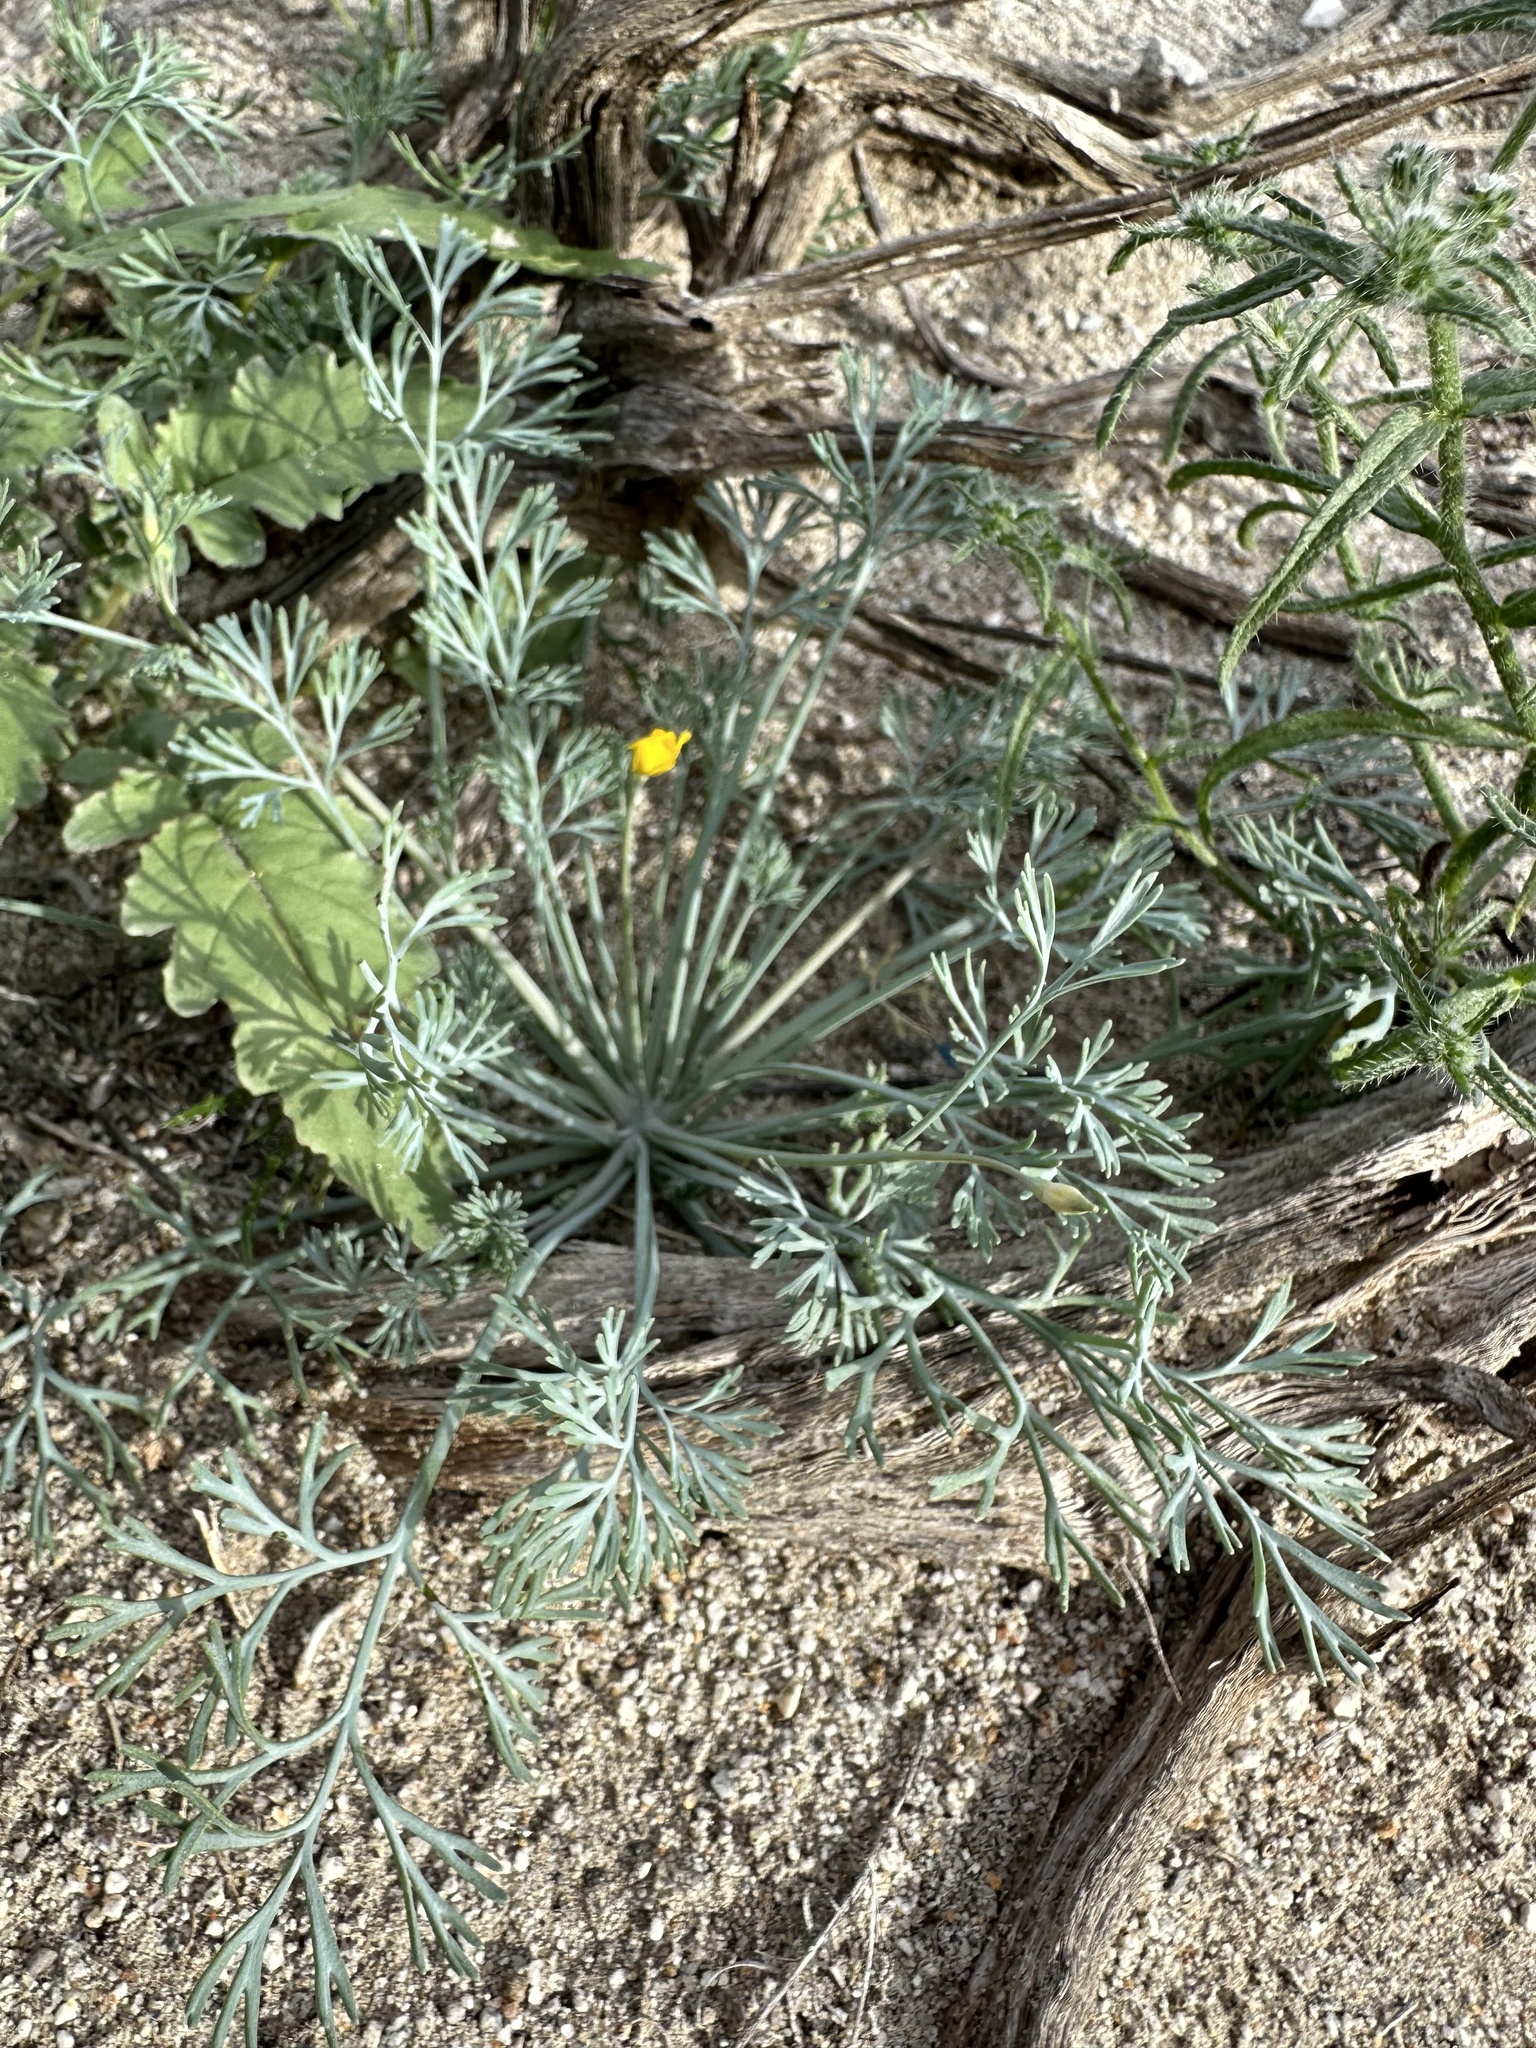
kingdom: Plantae
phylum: Tracheophyta
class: Magnoliopsida
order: Ranunculales
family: Papaveraceae
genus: Eschscholzia
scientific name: Eschscholzia minutiflora
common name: Small-flower california-poppy
